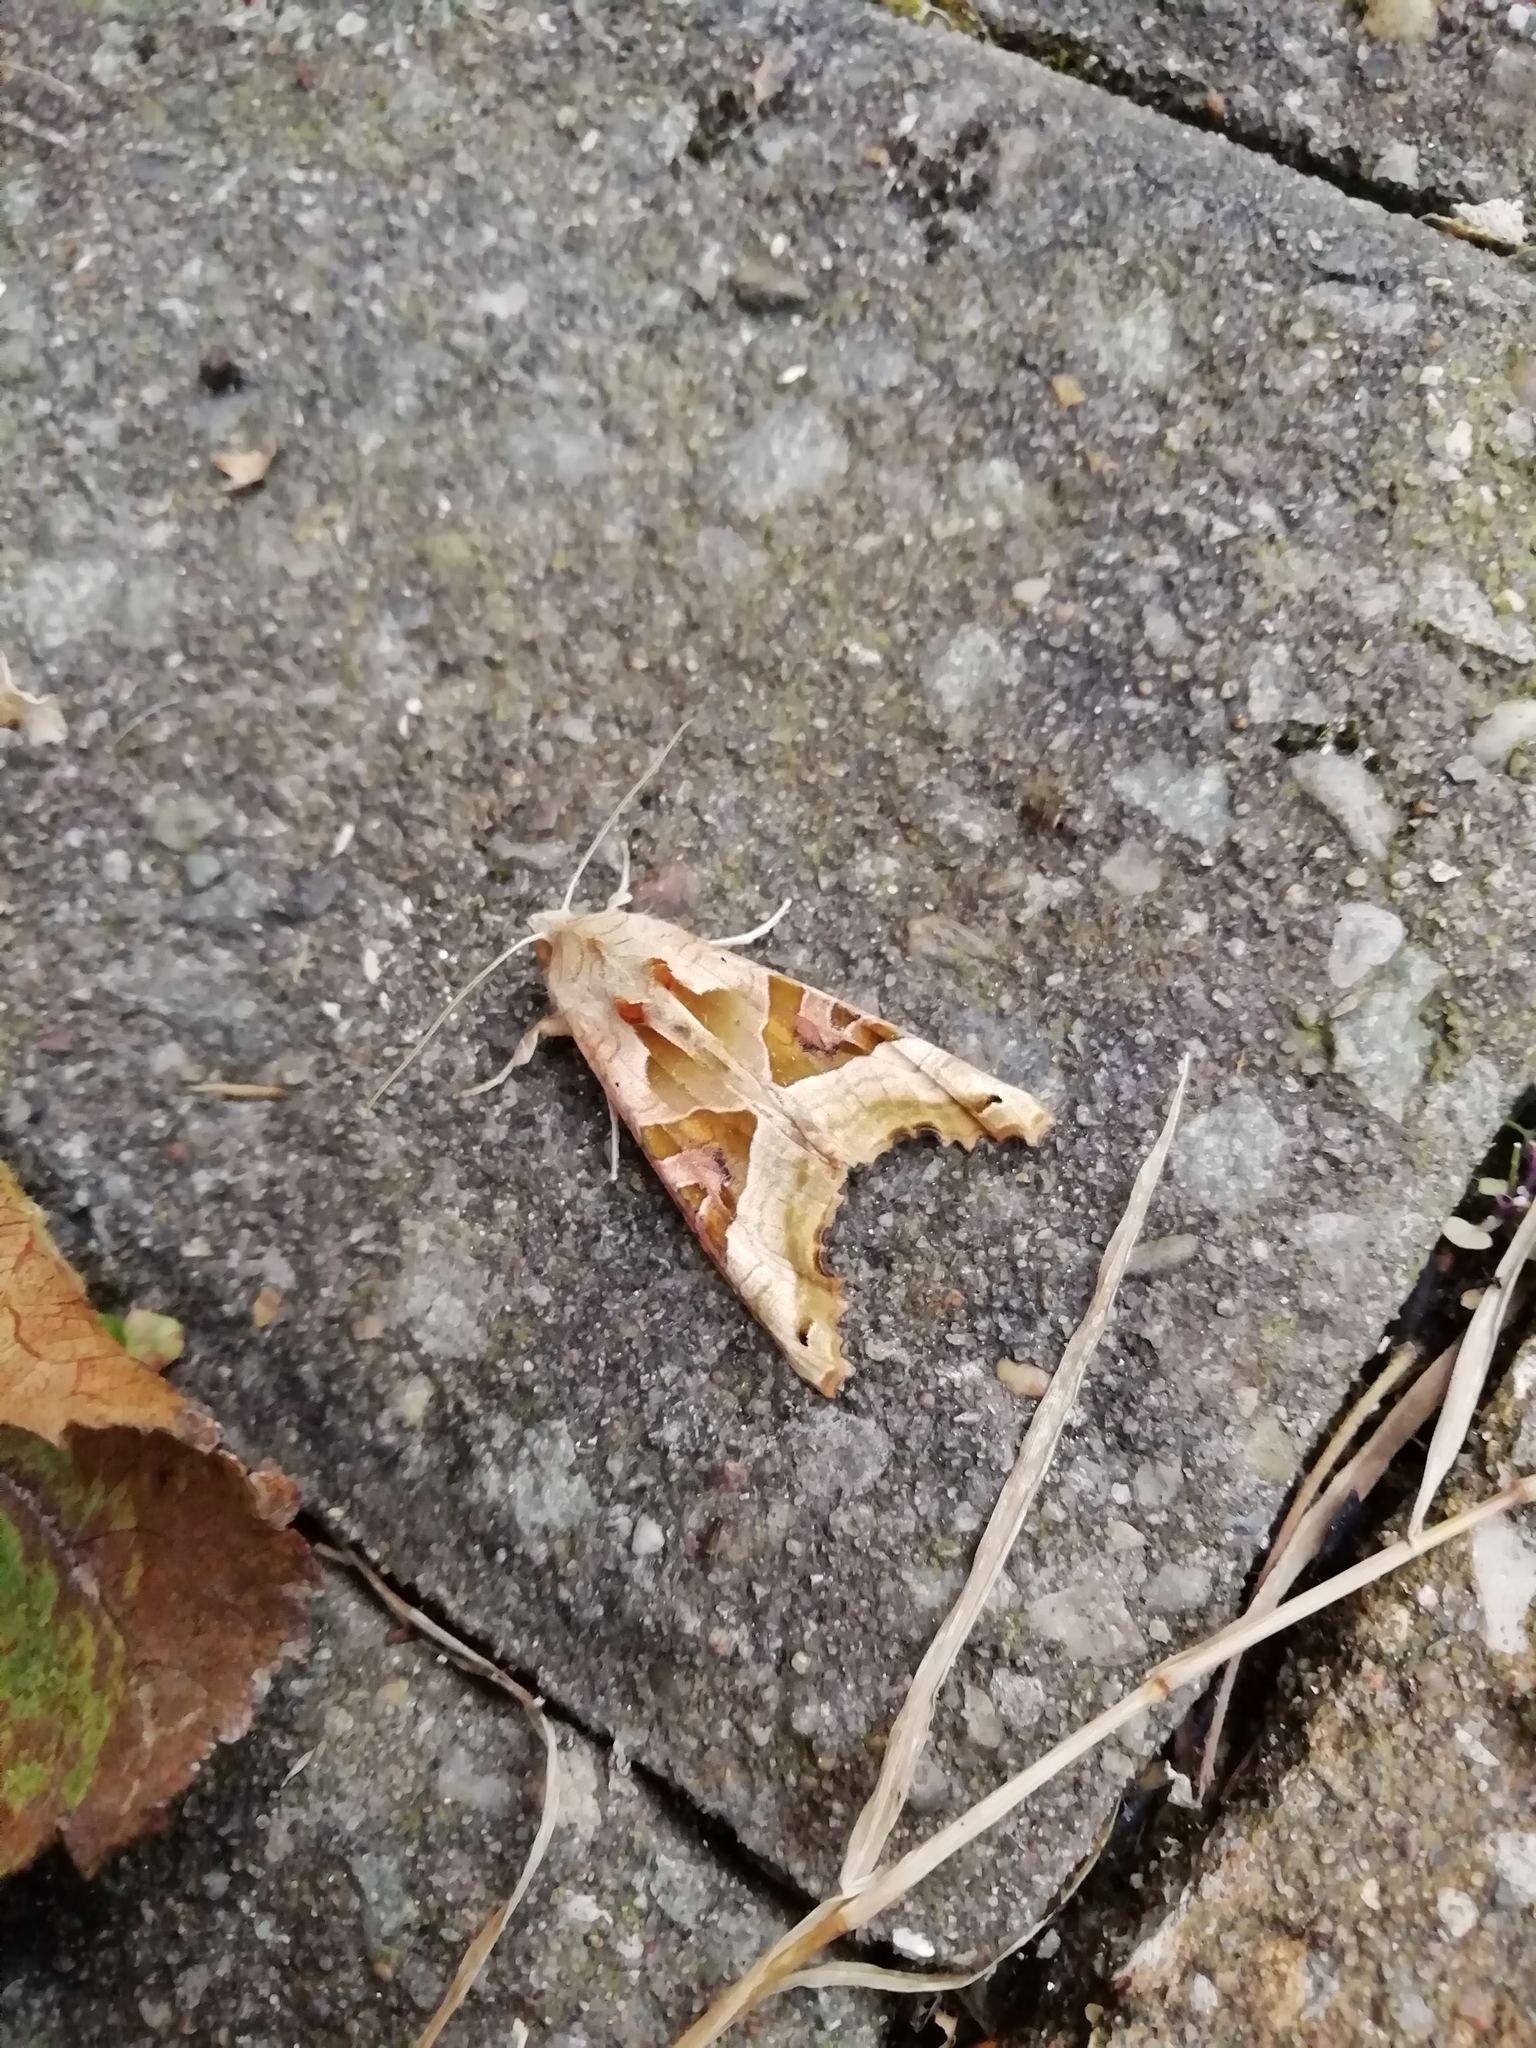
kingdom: Animalia
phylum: Arthropoda
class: Insecta
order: Lepidoptera
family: Noctuidae
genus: Phlogophora
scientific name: Phlogophora meticulosa
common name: Angle shades
